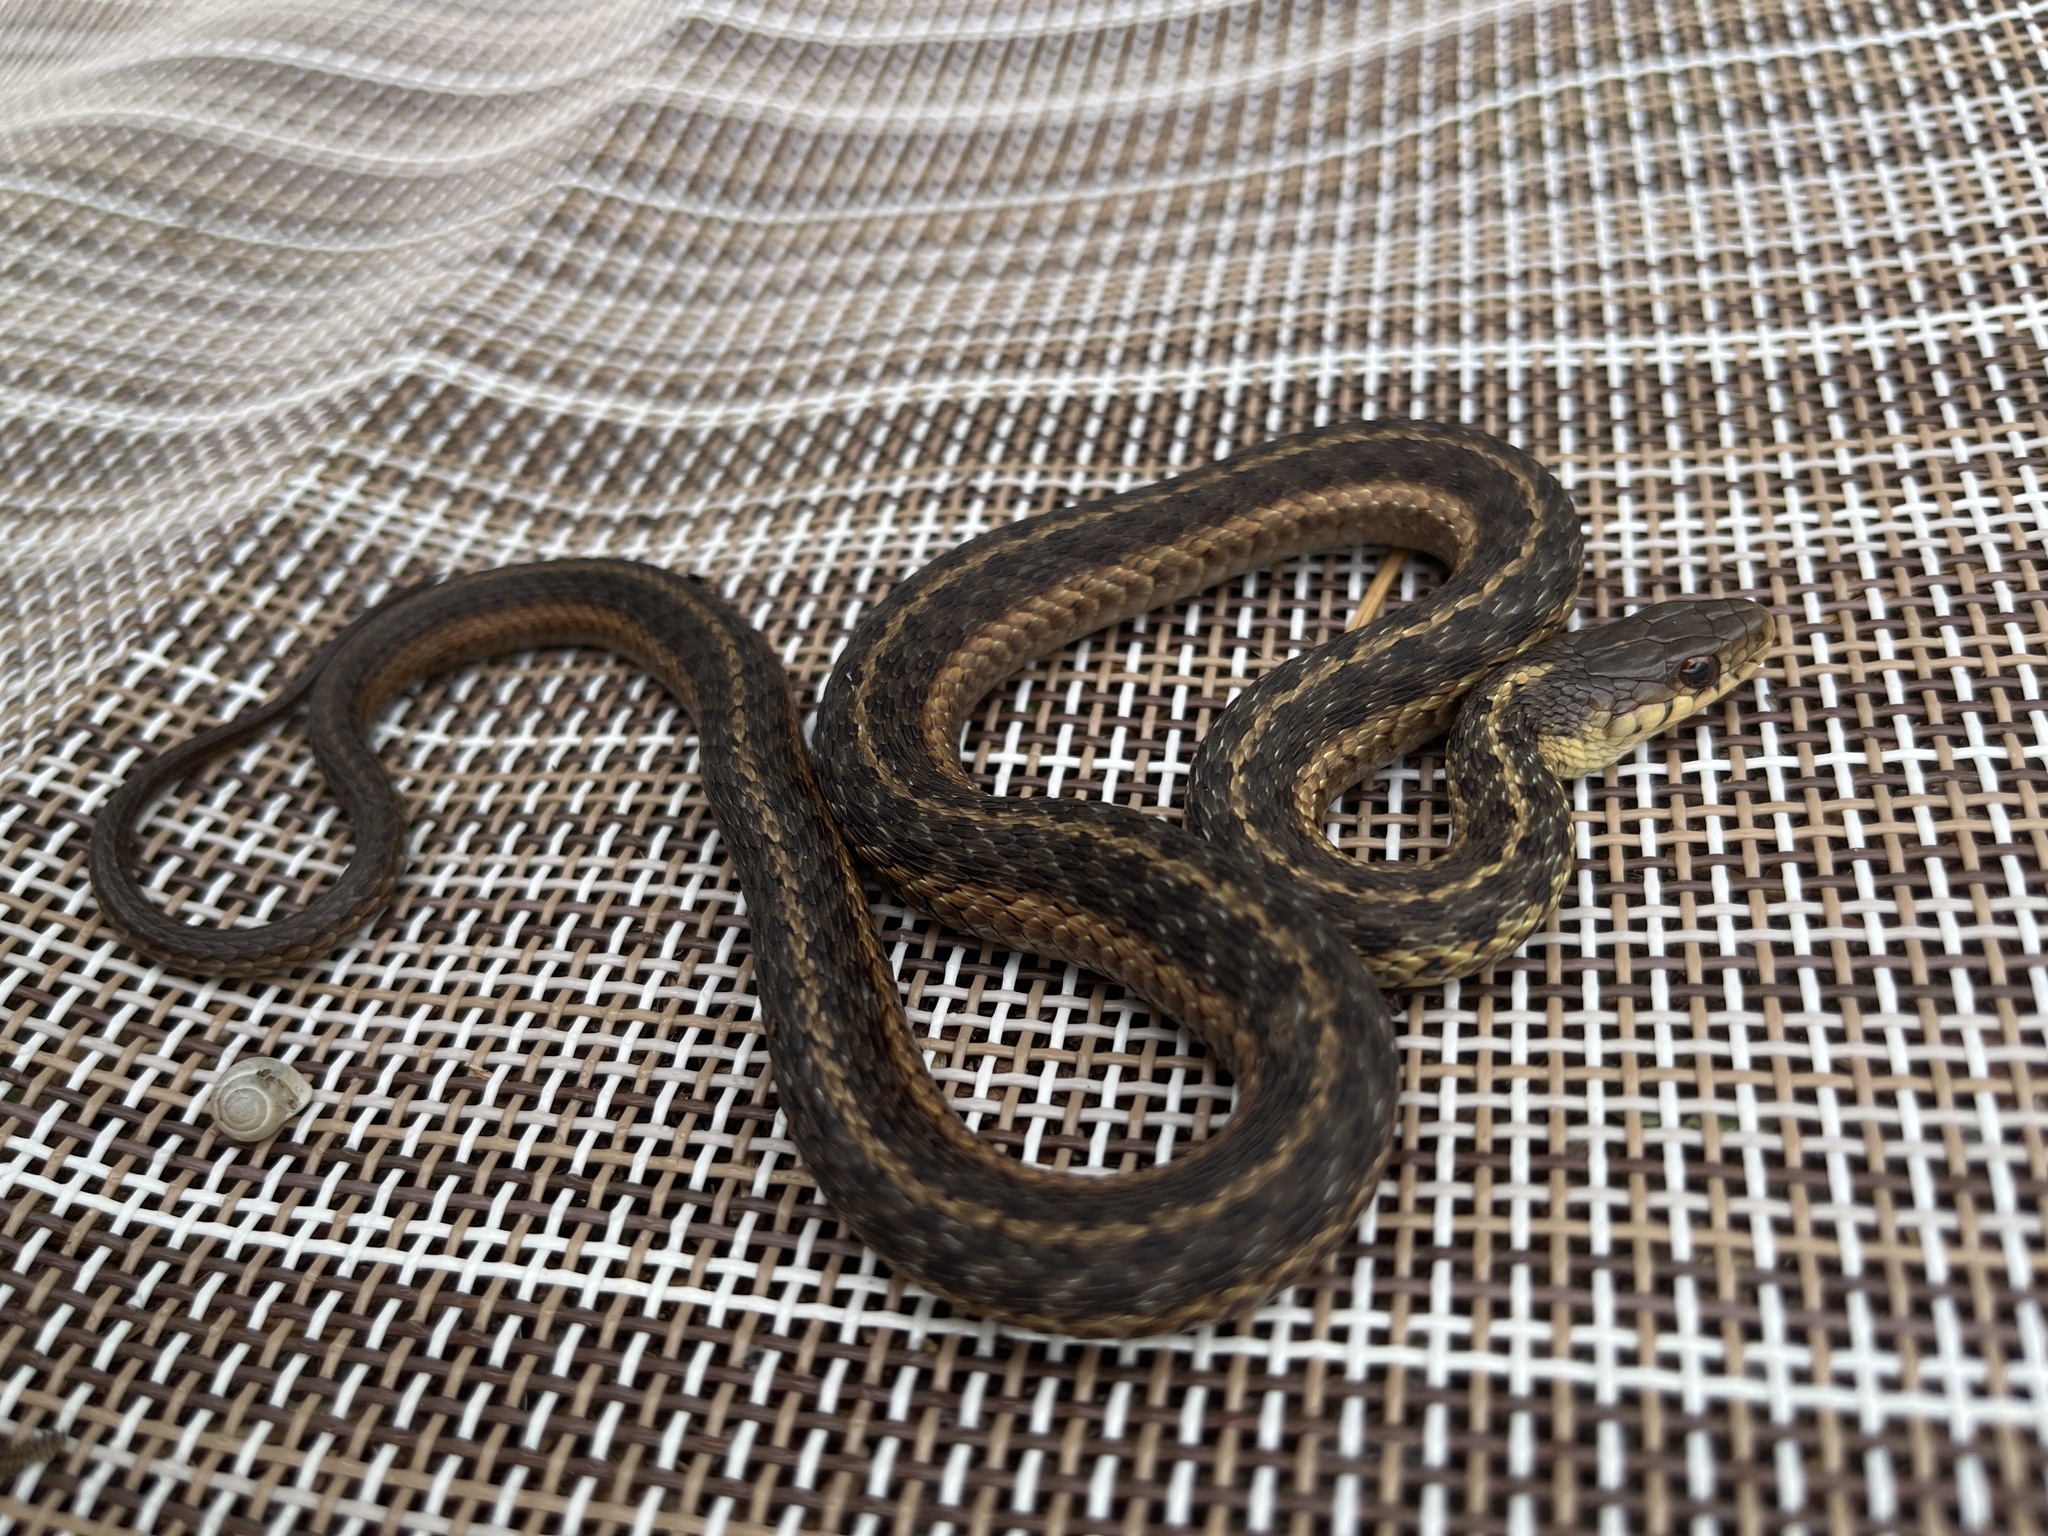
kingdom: Animalia
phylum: Chordata
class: Squamata
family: Colubridae
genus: Thamnophis
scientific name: Thamnophis sirtalis
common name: Common garter snake
